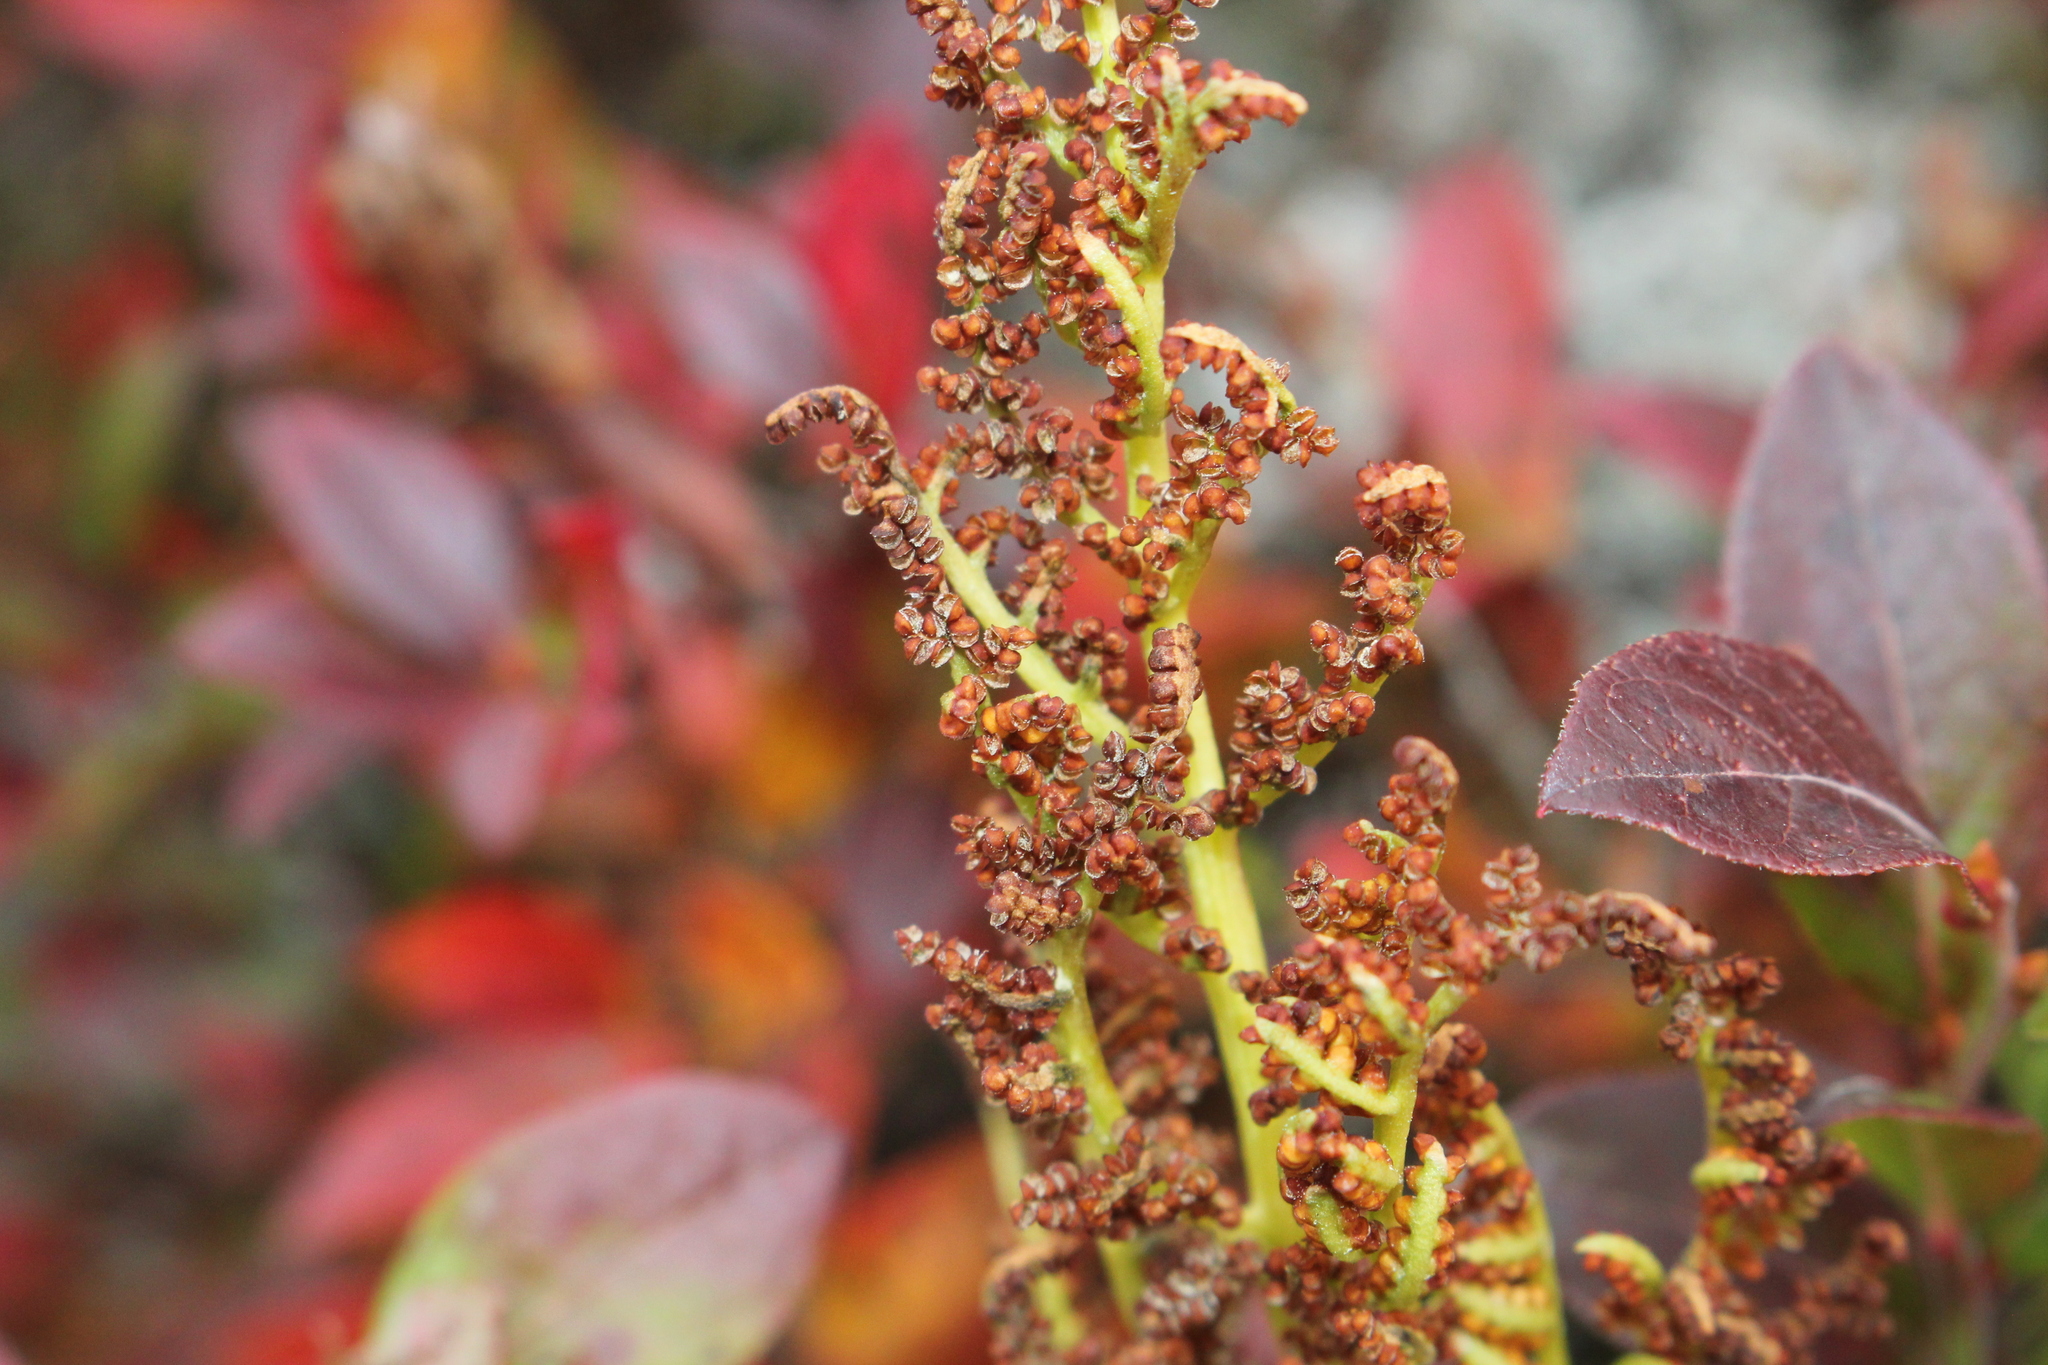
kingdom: Plantae
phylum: Tracheophyta
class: Polypodiopsida
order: Ophioglossales
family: Ophioglossaceae
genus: Sceptridium
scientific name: Sceptridium multifidum
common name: Leathery grape fern
